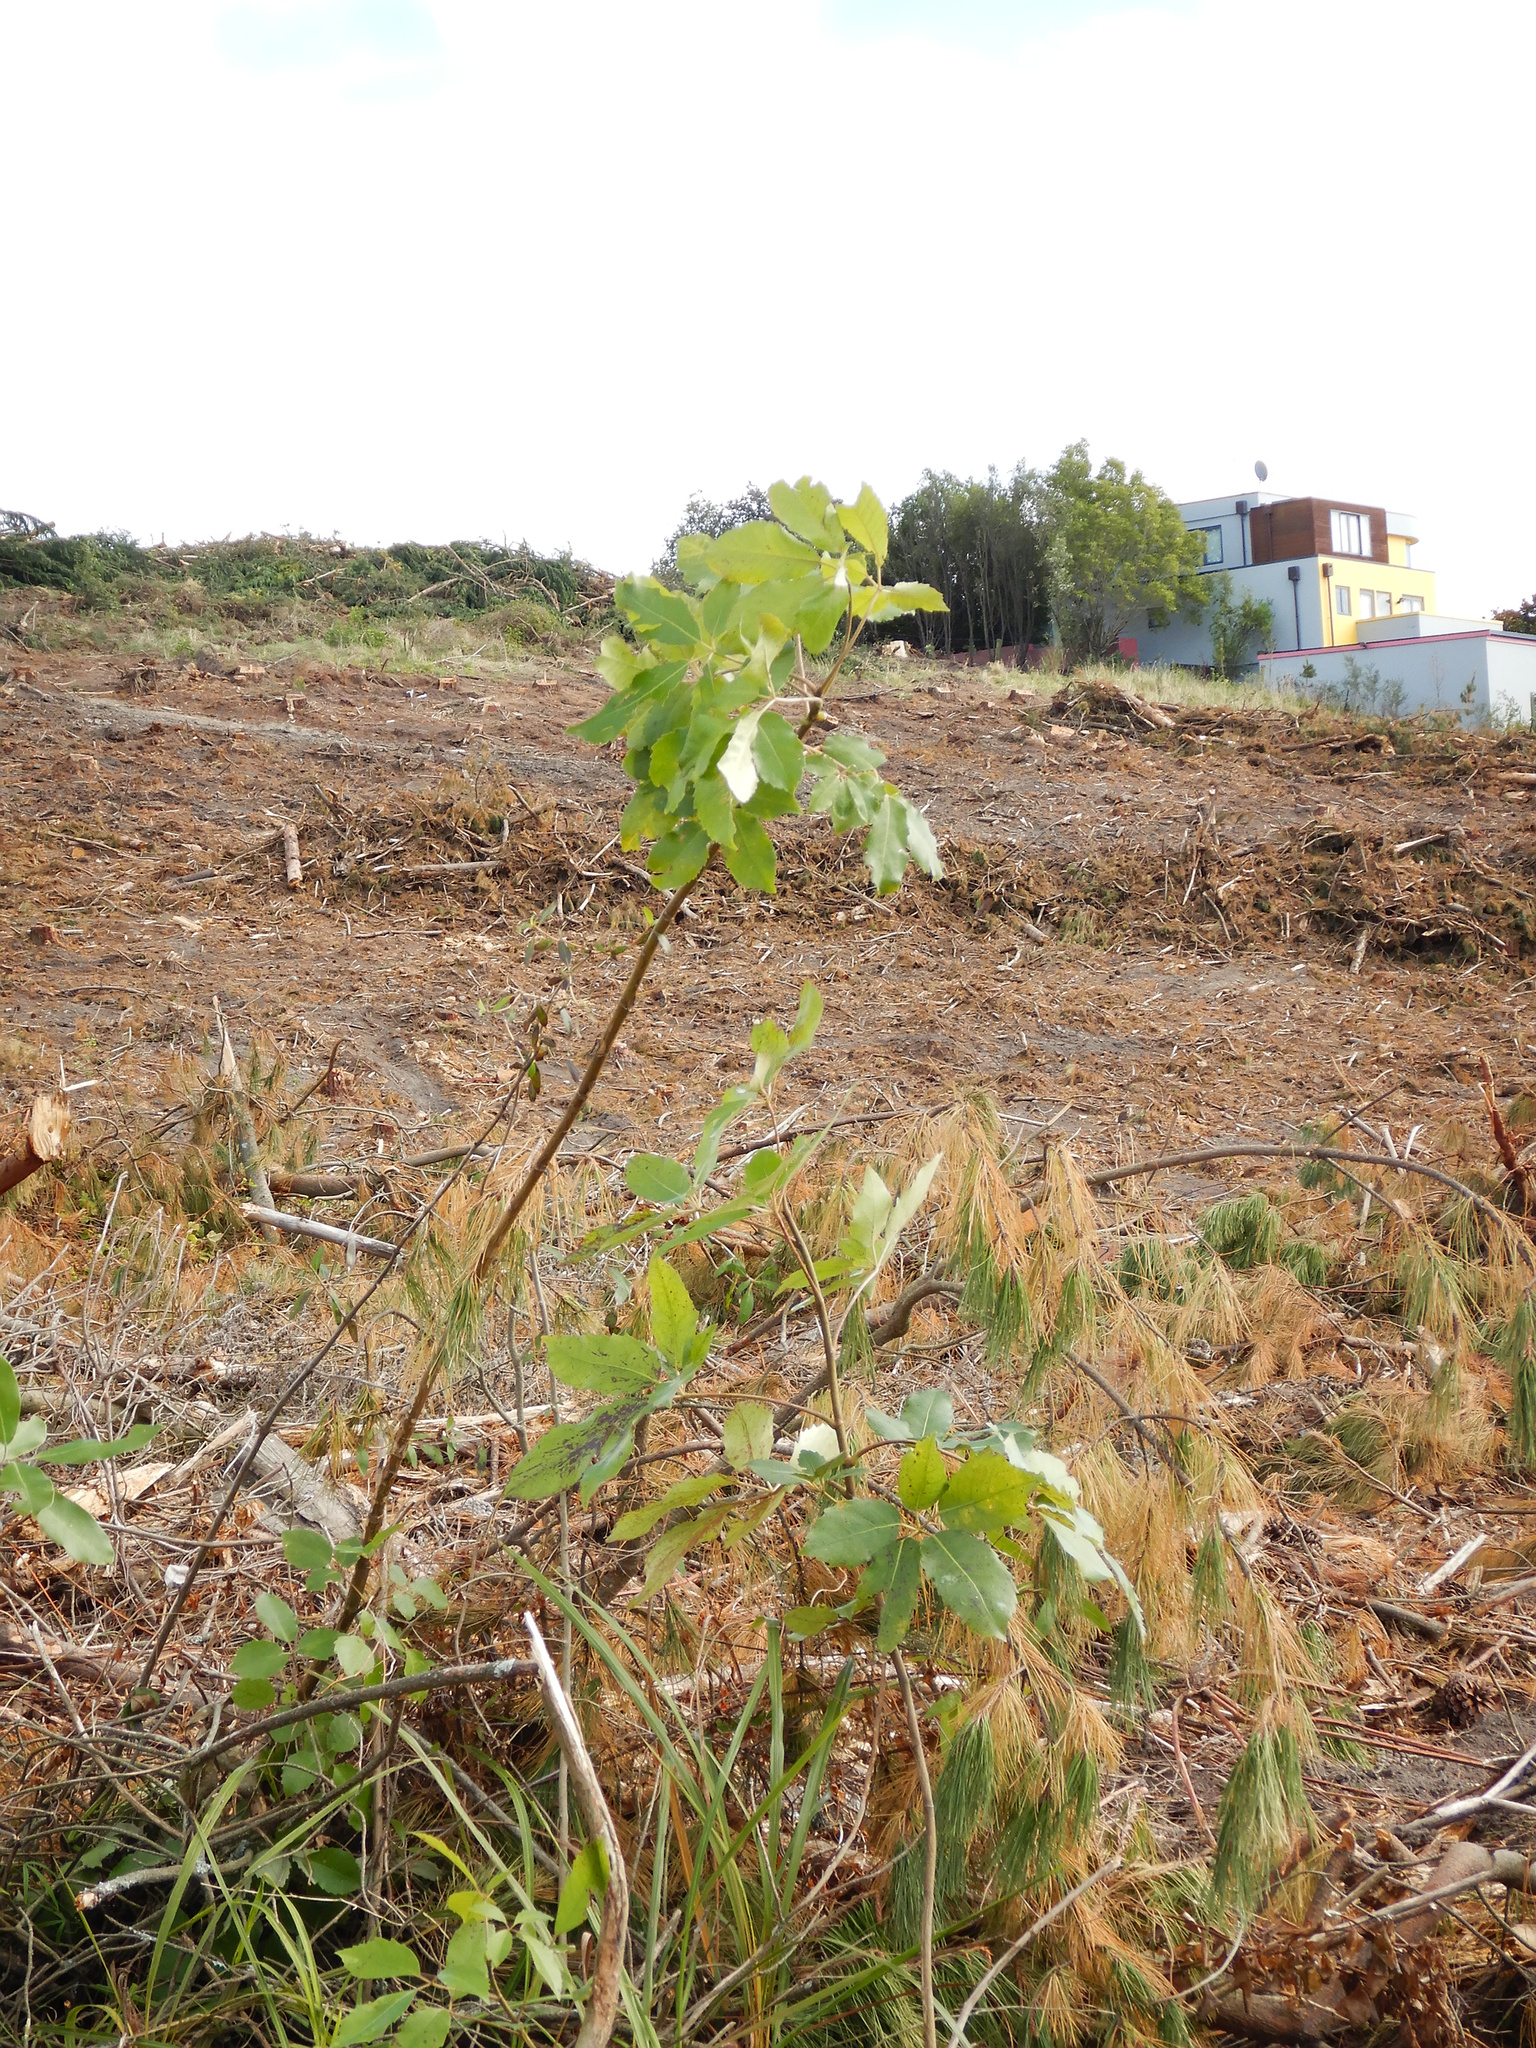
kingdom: Plantae
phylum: Tracheophyta
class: Magnoliopsida
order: Apiales
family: Araliaceae
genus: Neopanax
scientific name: Neopanax arboreus
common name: Five-fingers
